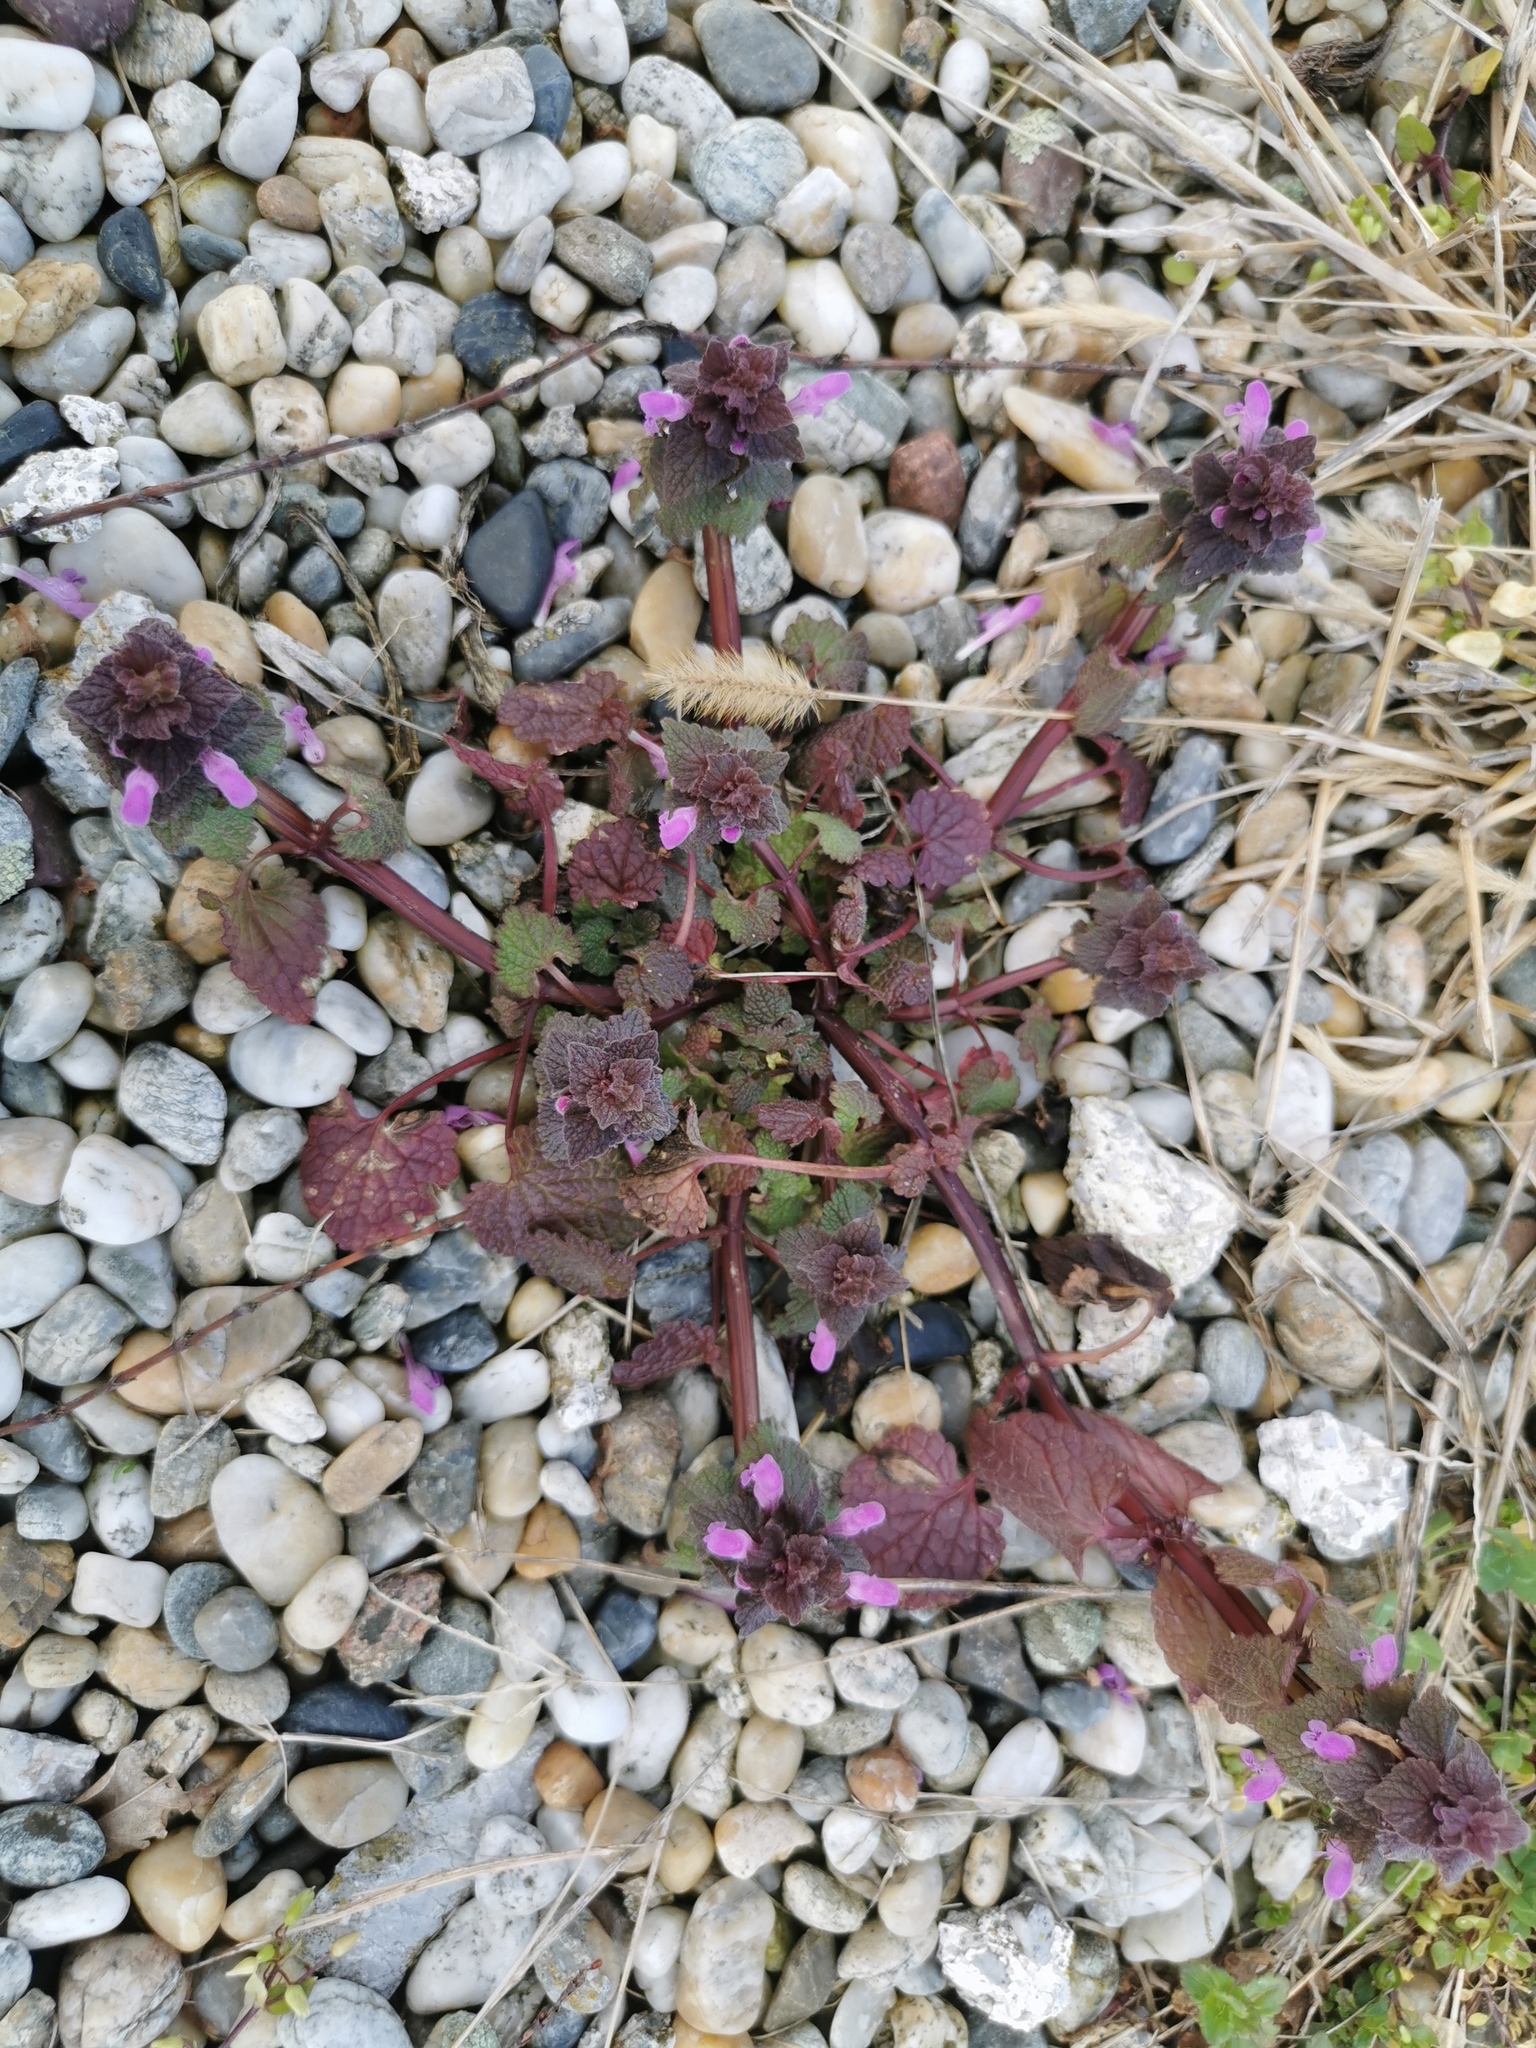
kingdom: Plantae
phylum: Tracheophyta
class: Magnoliopsida
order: Lamiales
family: Lamiaceae
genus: Lamium
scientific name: Lamium purpureum
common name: Red dead-nettle
